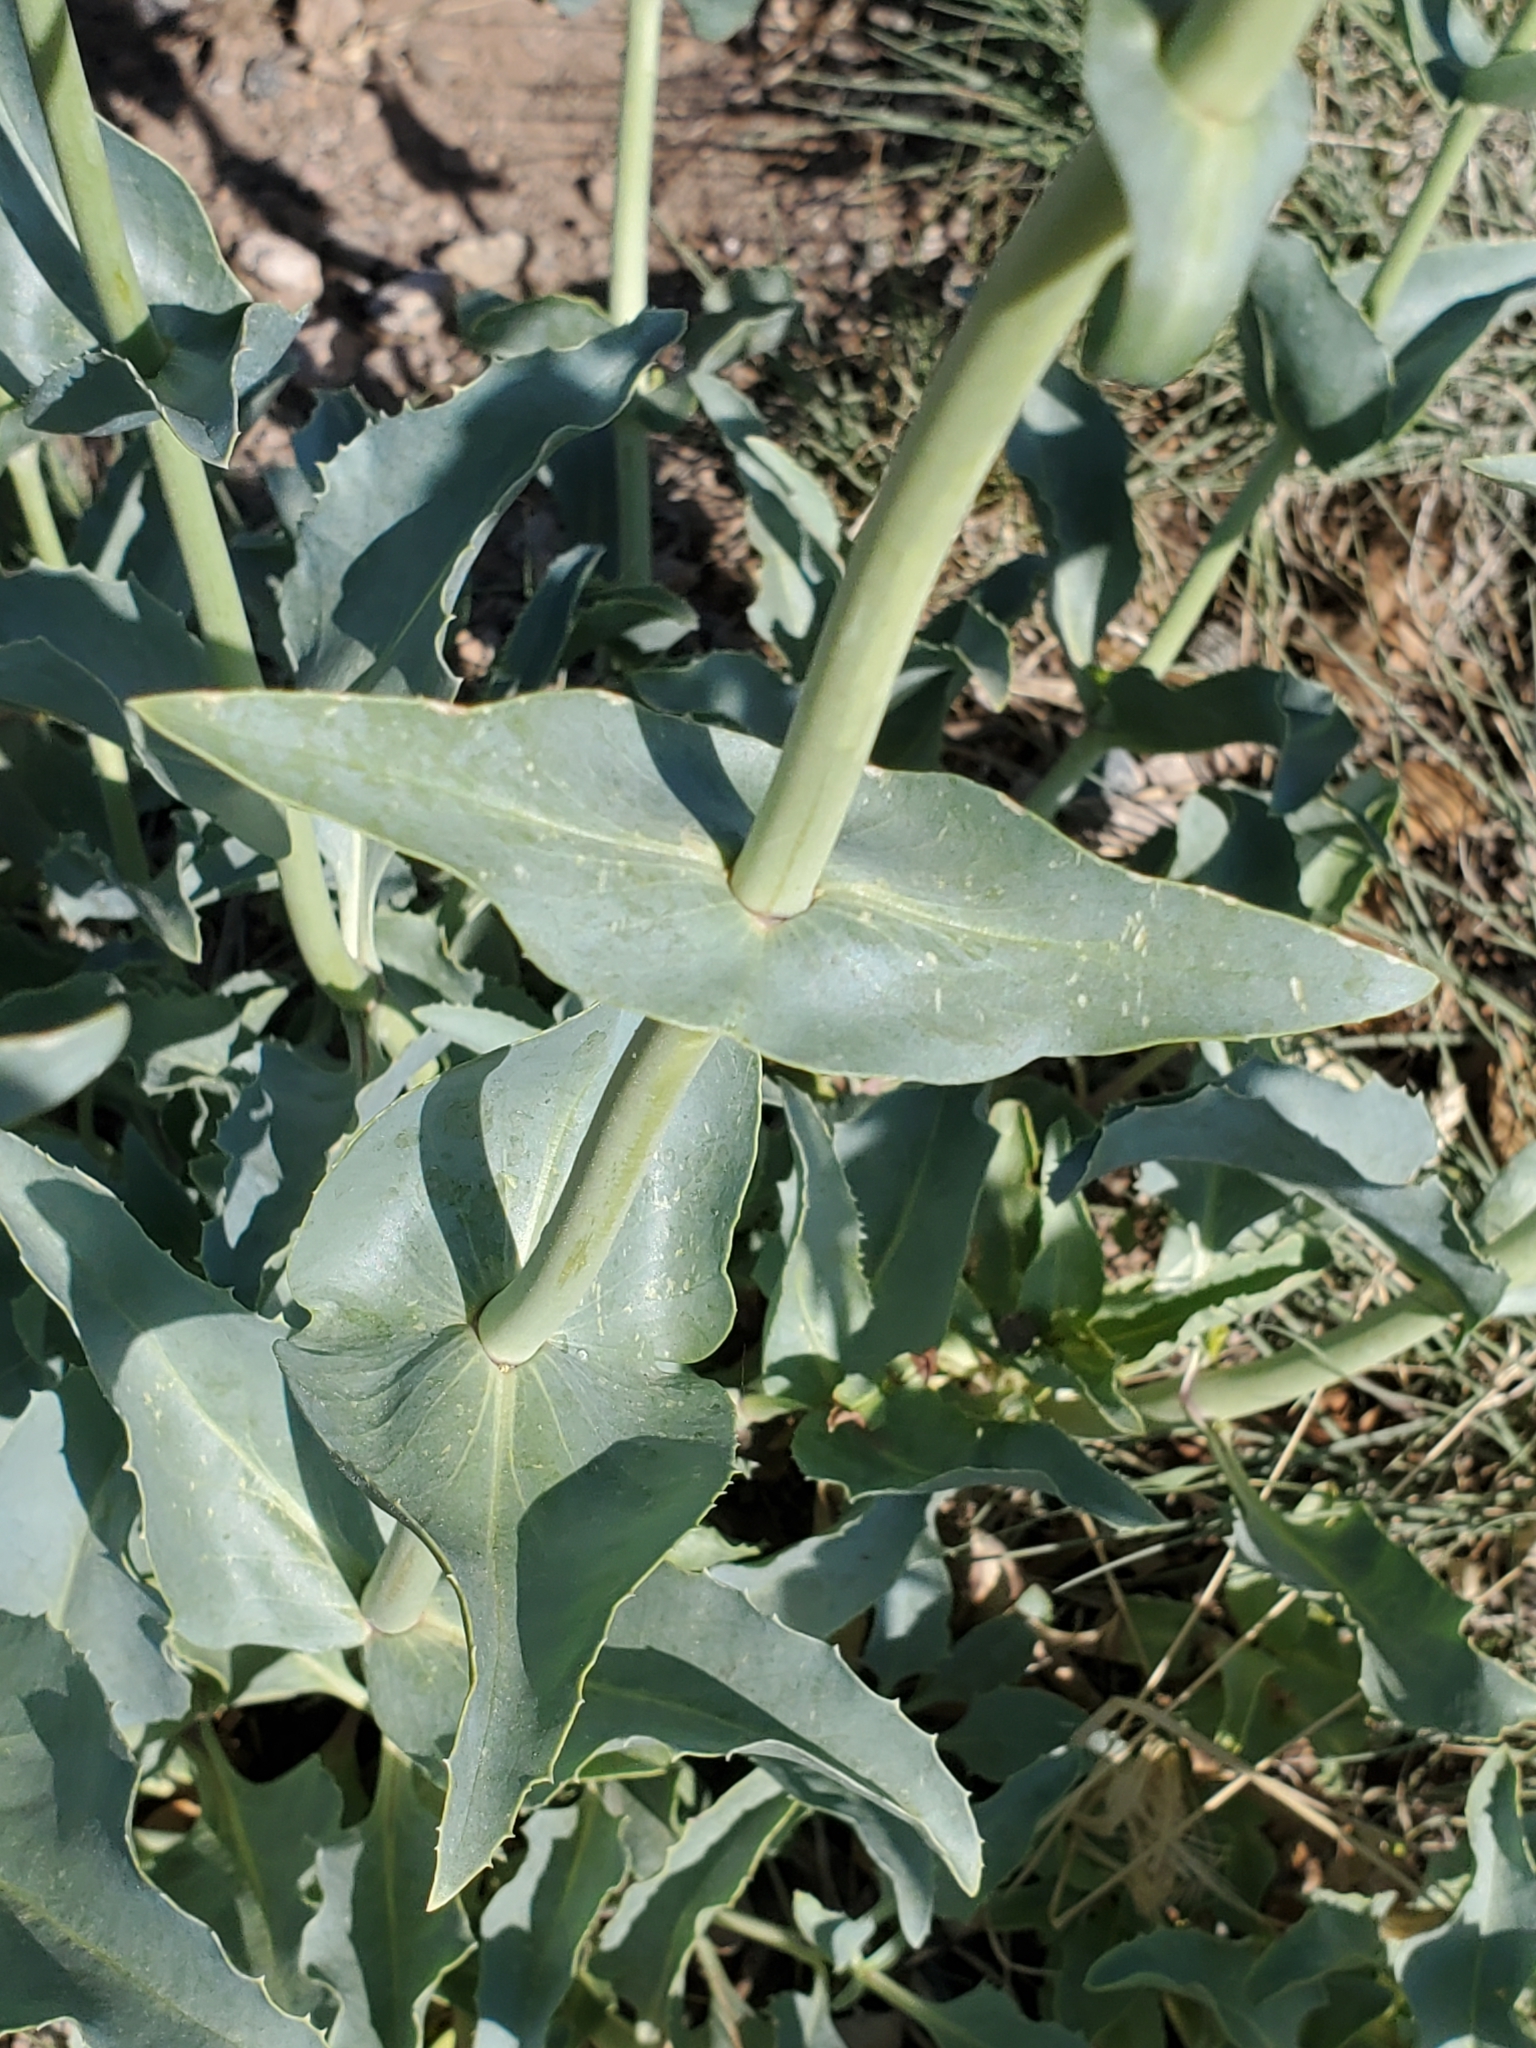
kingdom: Plantae
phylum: Tracheophyta
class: Magnoliopsida
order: Lamiales
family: Plantaginaceae
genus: Penstemon
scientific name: Penstemon palmeri
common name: Palmer penstemon
